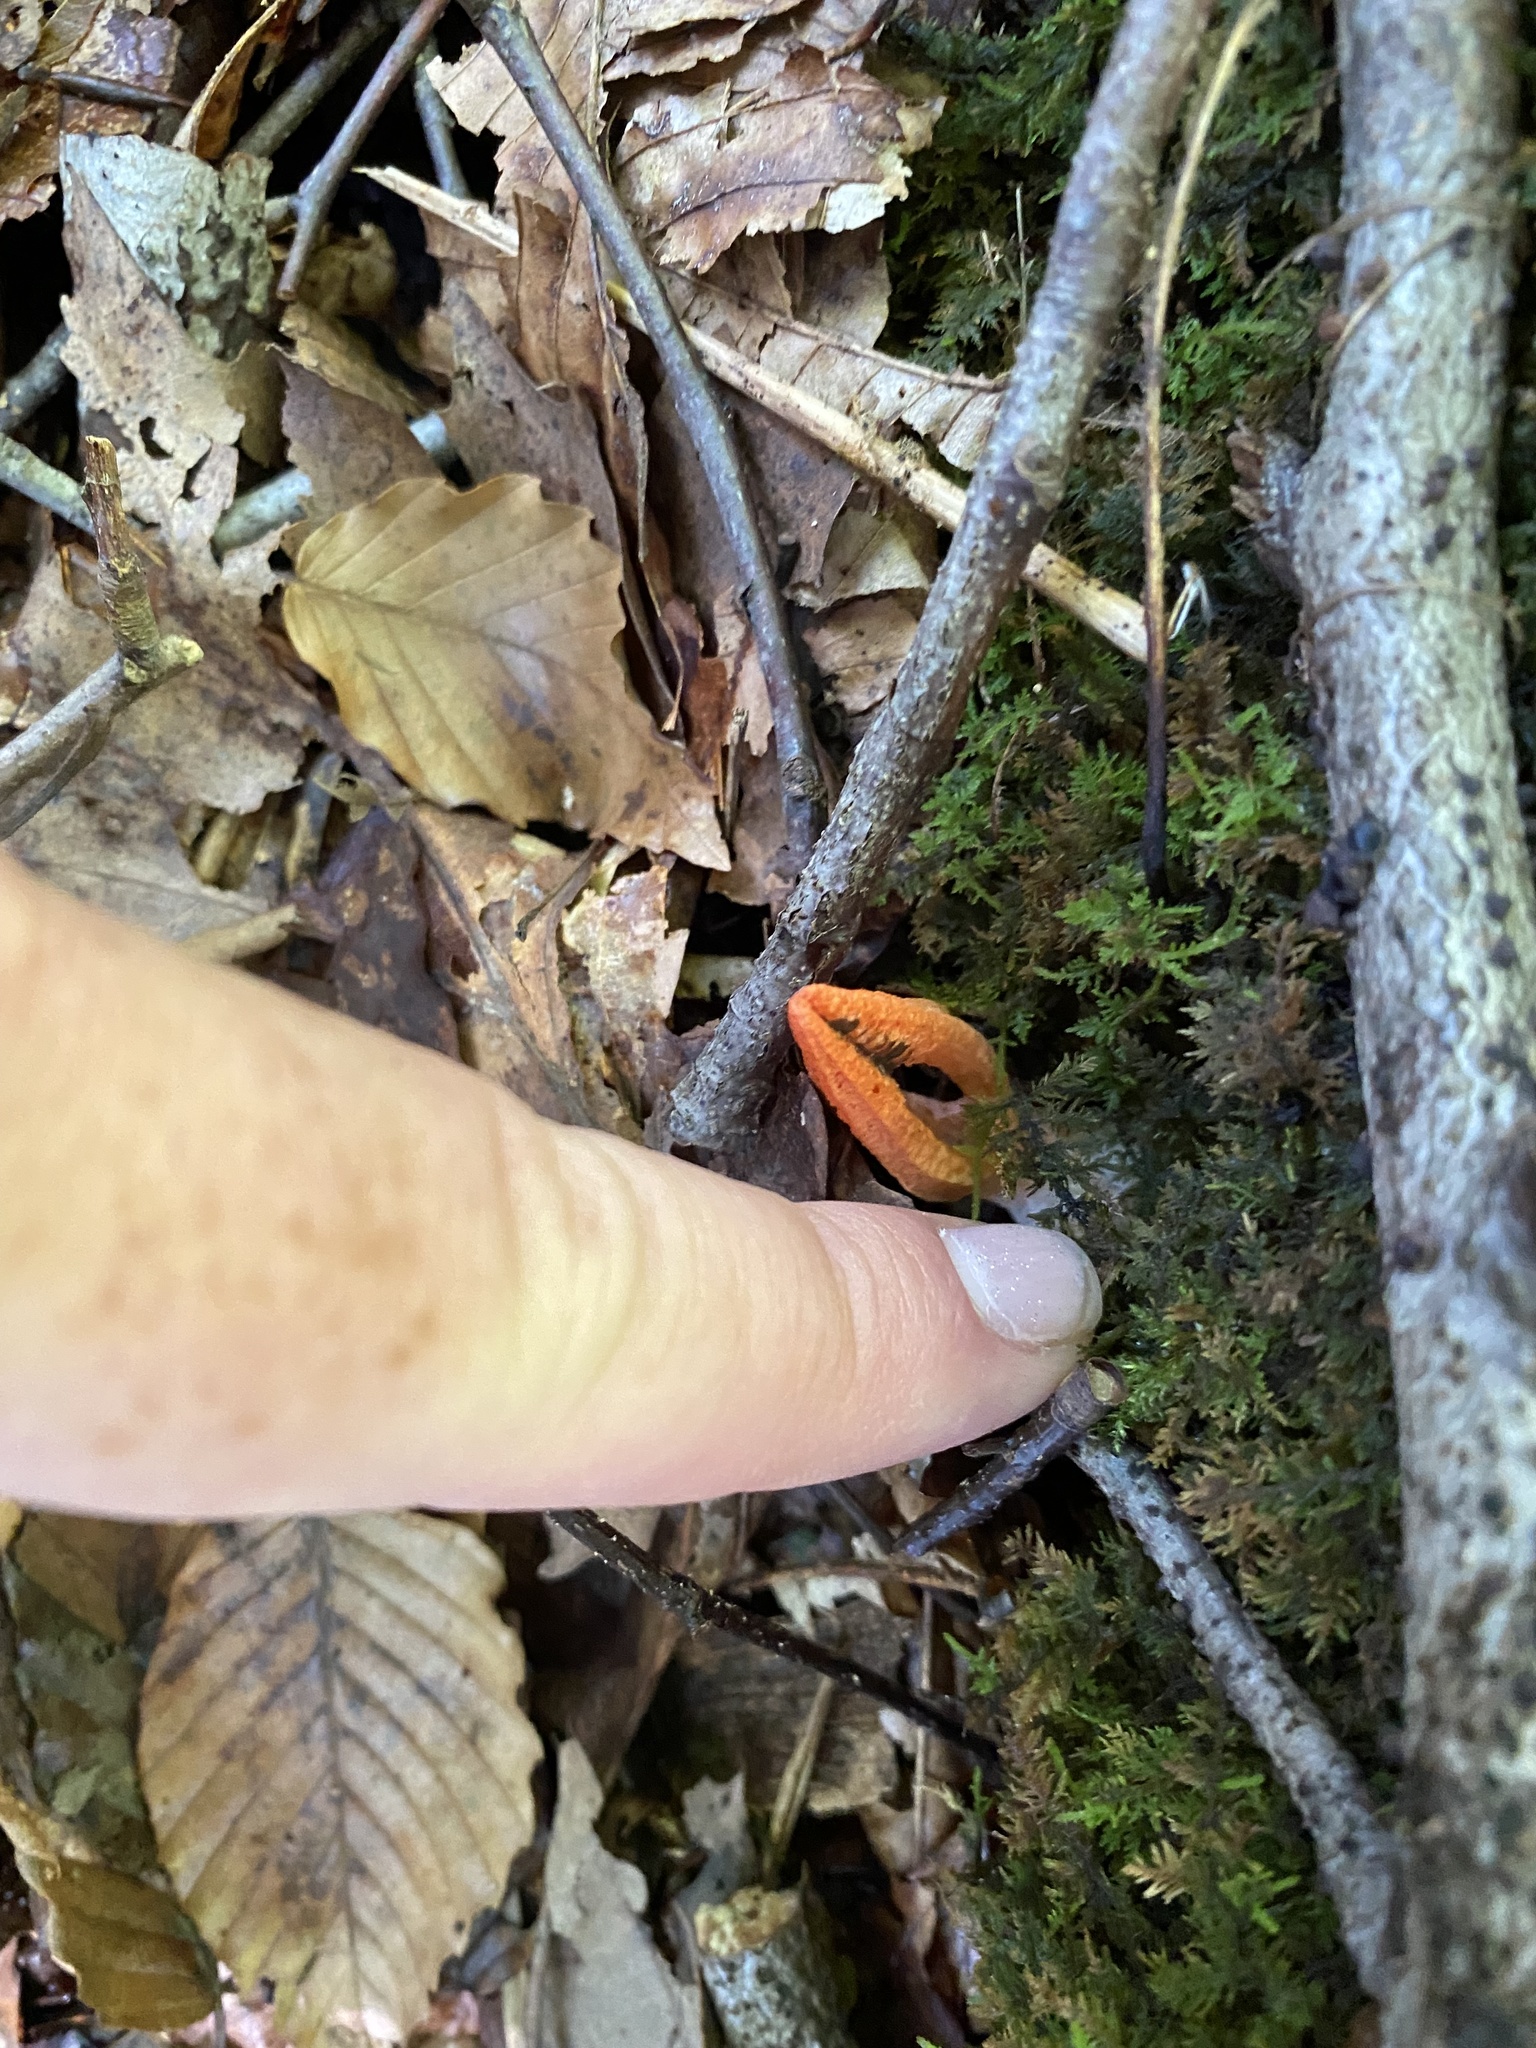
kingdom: Fungi
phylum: Basidiomycota
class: Agaricomycetes
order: Phallales
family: Phallaceae
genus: Pseudocolus
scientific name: Pseudocolus fusiformis
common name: Stinky squid
